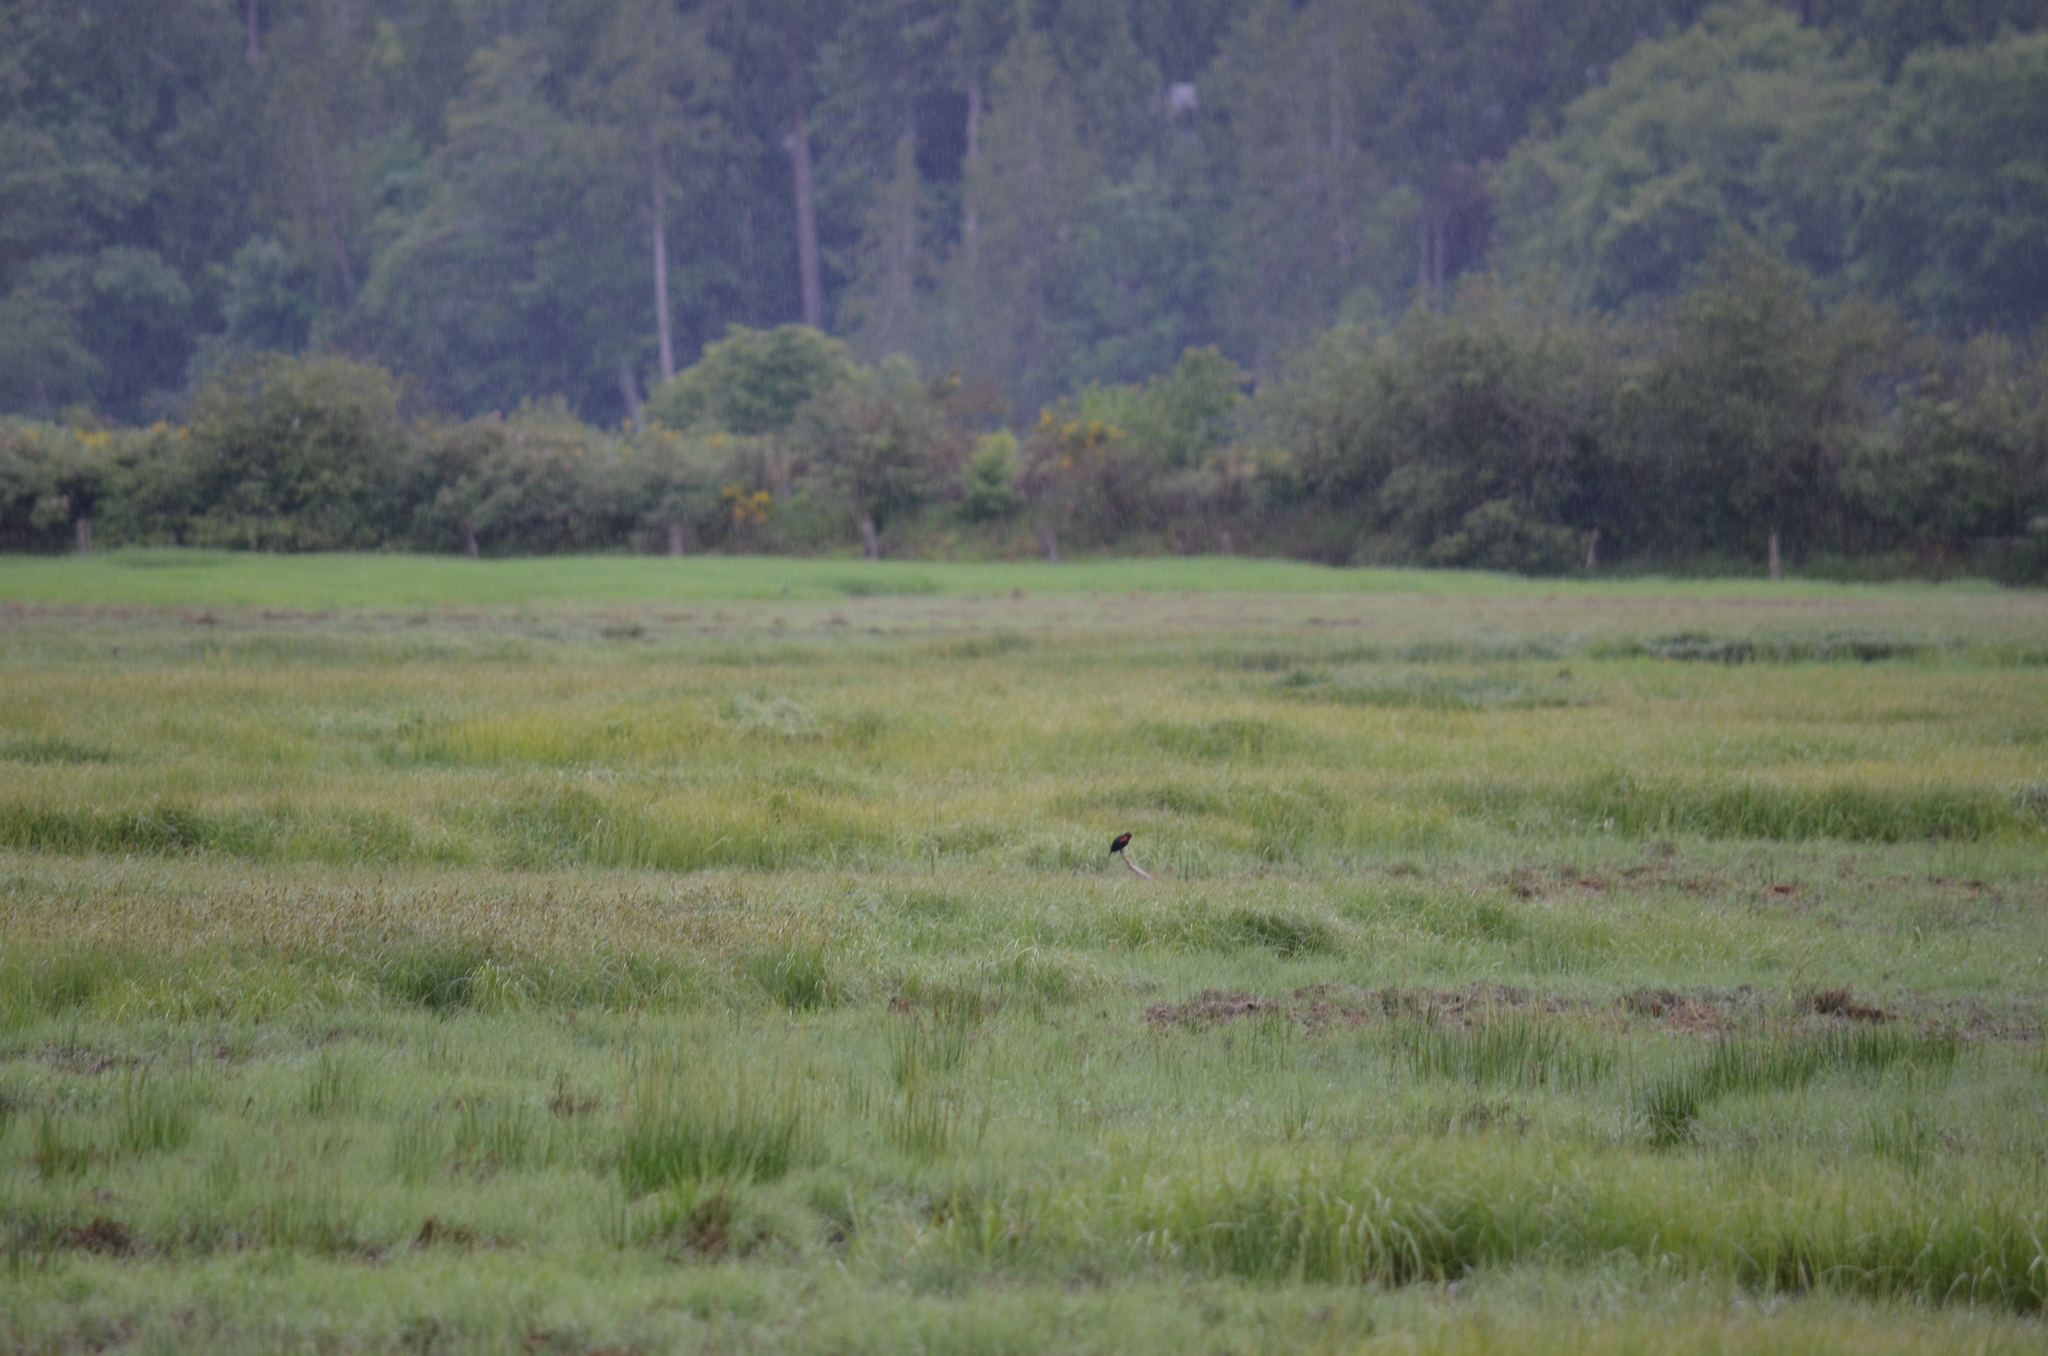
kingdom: Animalia
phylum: Chordata
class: Aves
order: Passeriformes
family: Icteridae
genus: Agelaius
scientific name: Agelaius phoeniceus
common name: Red-winged blackbird
